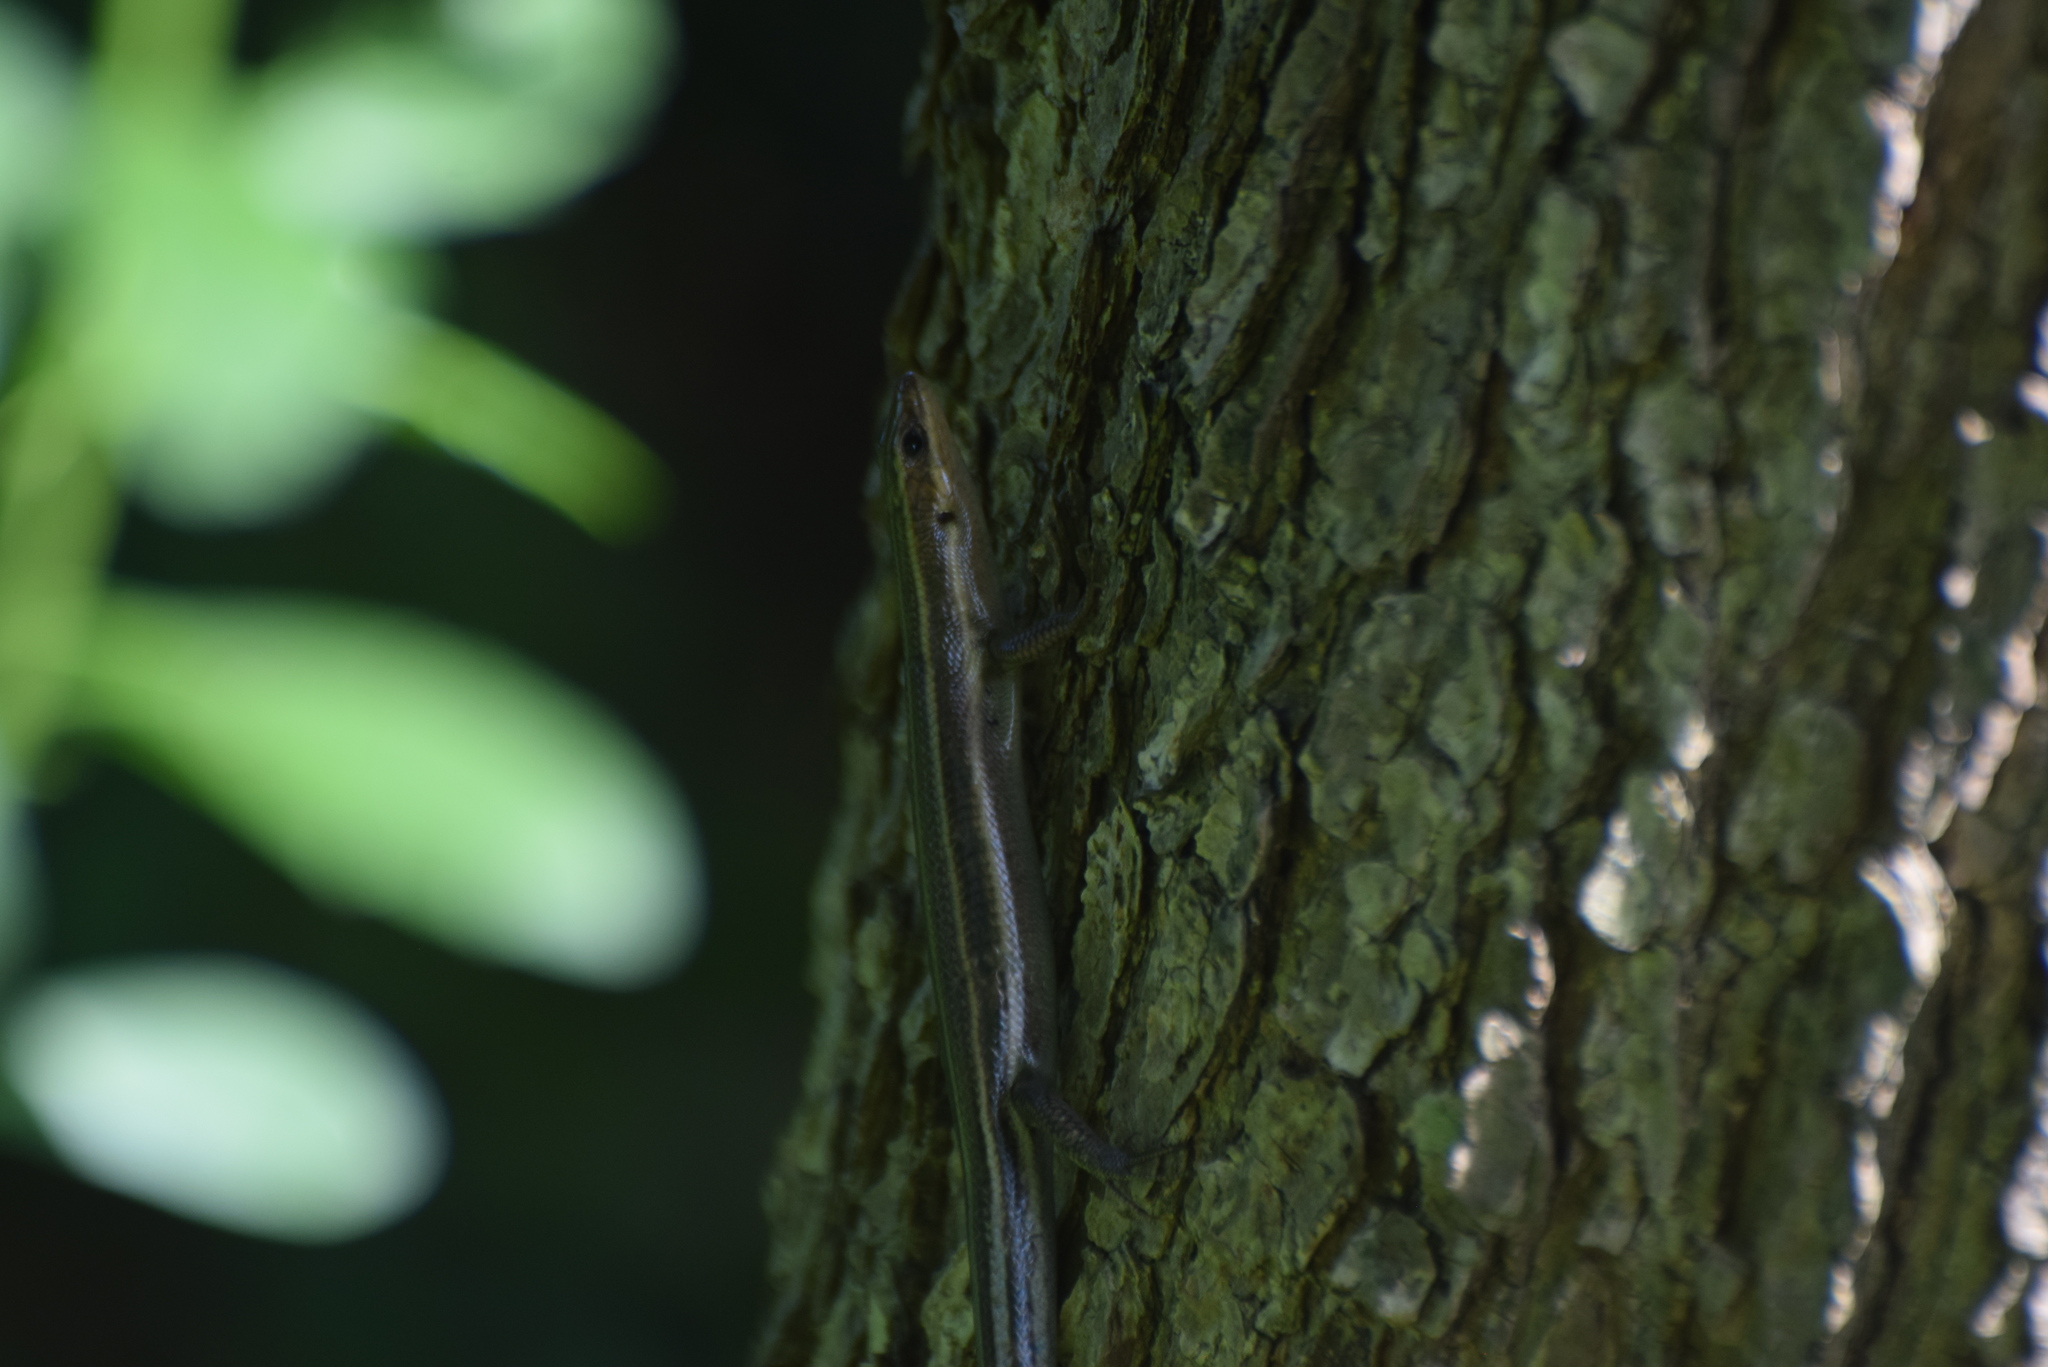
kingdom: Animalia
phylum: Chordata
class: Squamata
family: Scincidae
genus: Plestiodon
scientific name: Plestiodon fasciatus
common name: Five-lined skink
